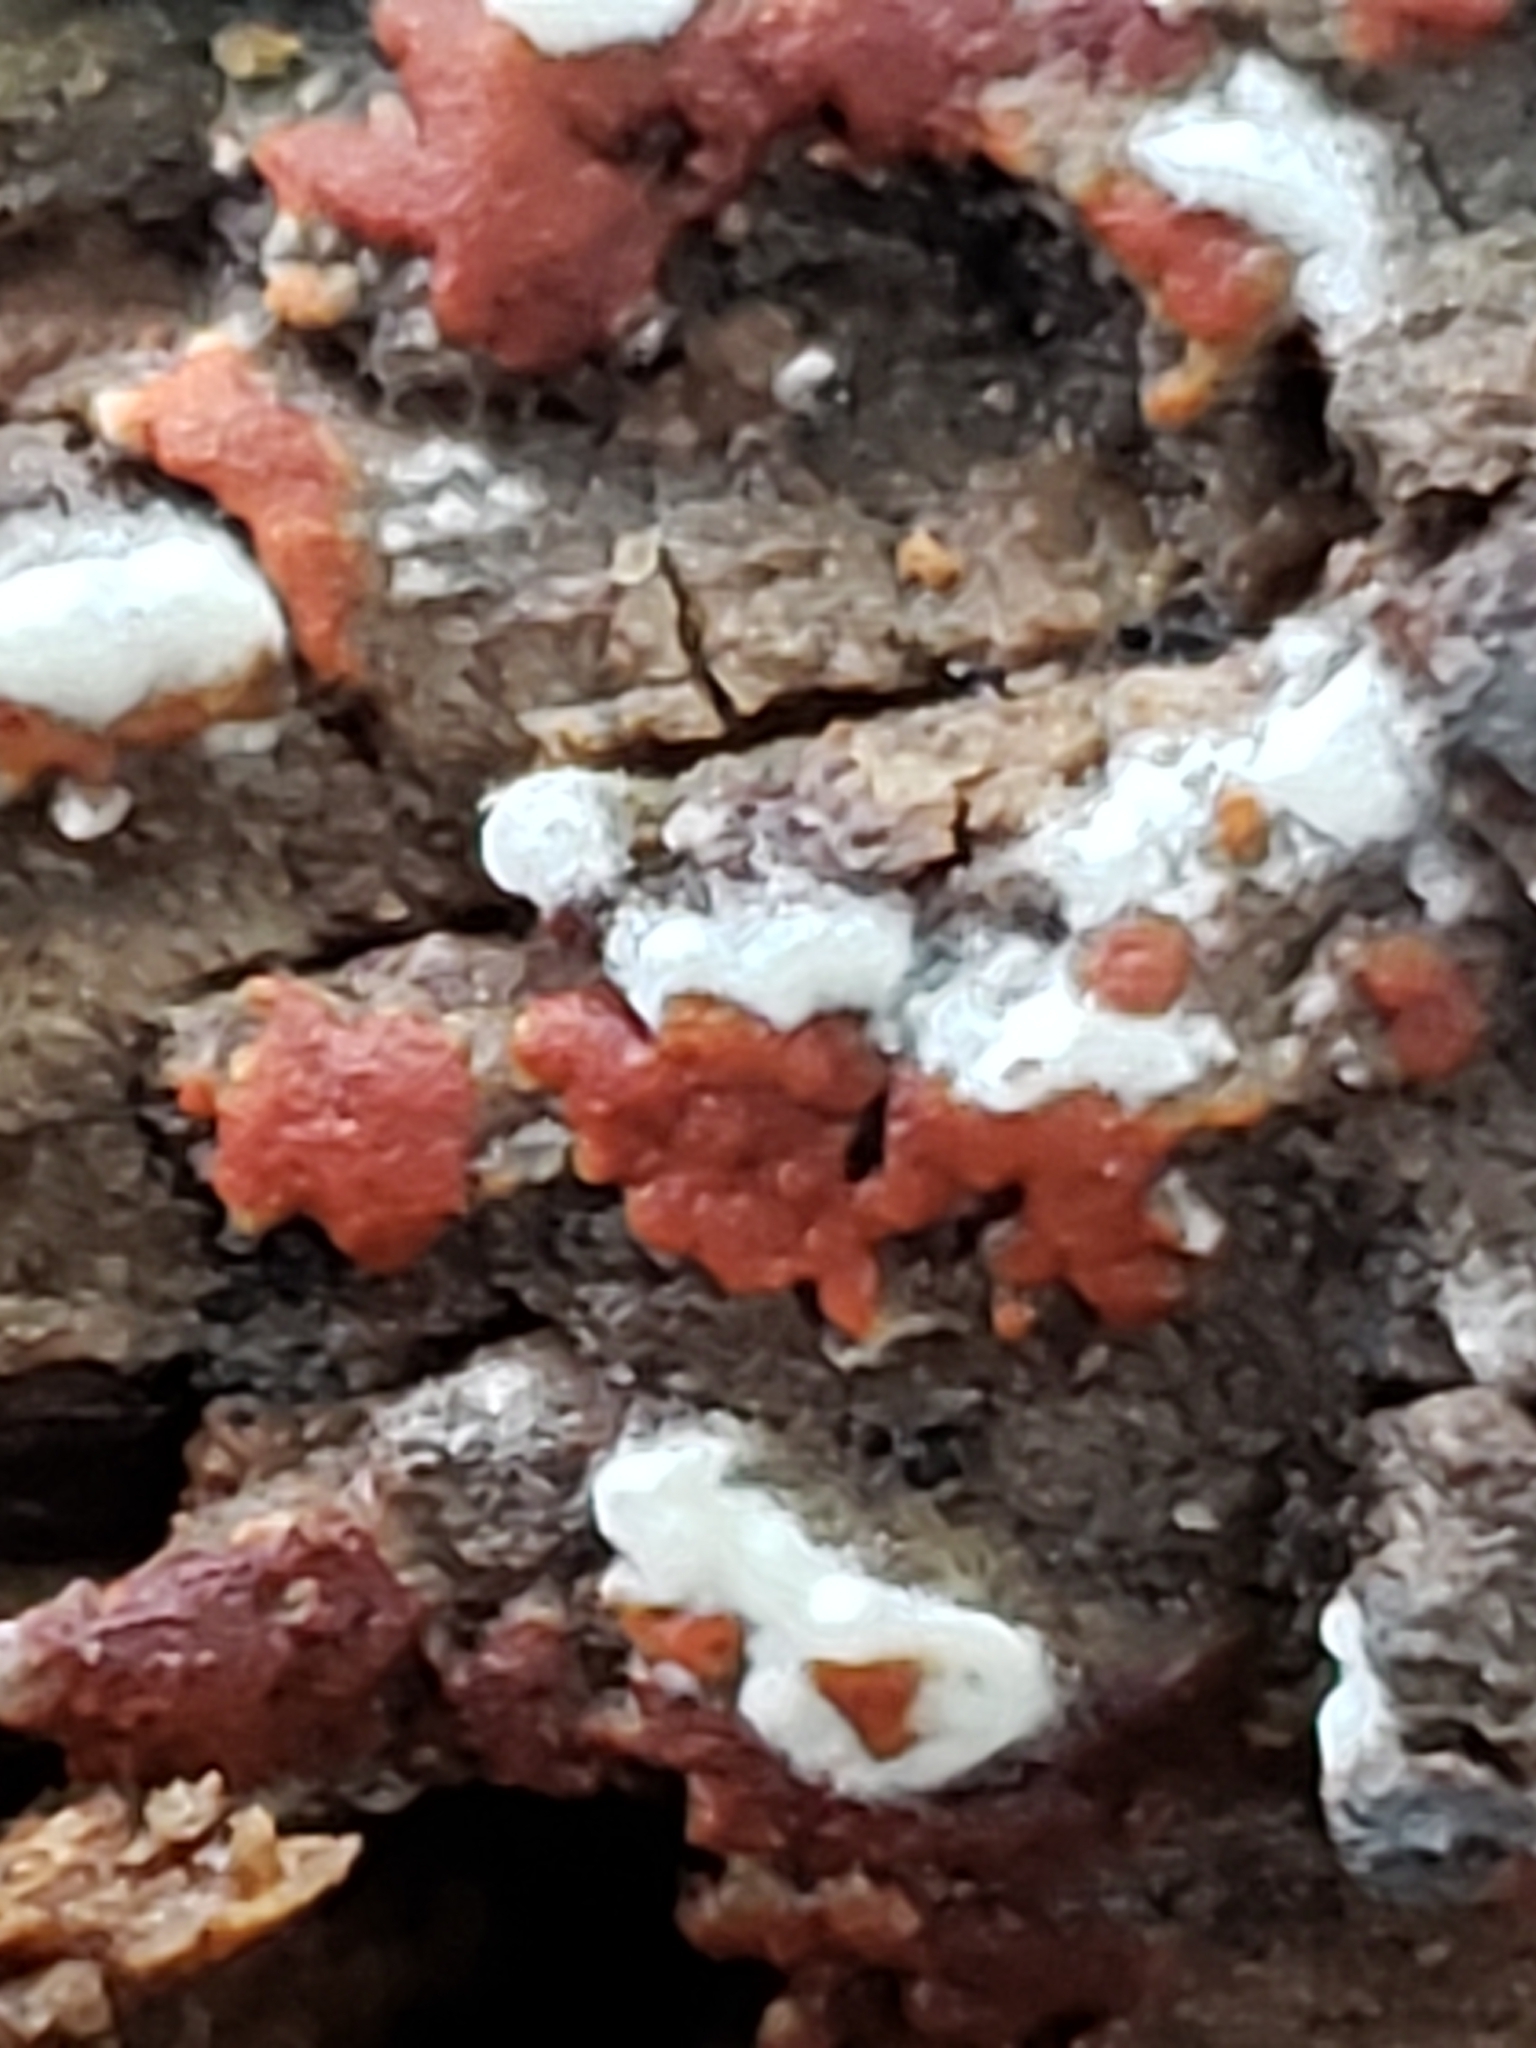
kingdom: Fungi
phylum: Basidiomycota
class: Agaricomycetes
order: Cantharellales
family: Botryobasidiaceae
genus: Botryobasidium
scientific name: Botryobasidium simile
